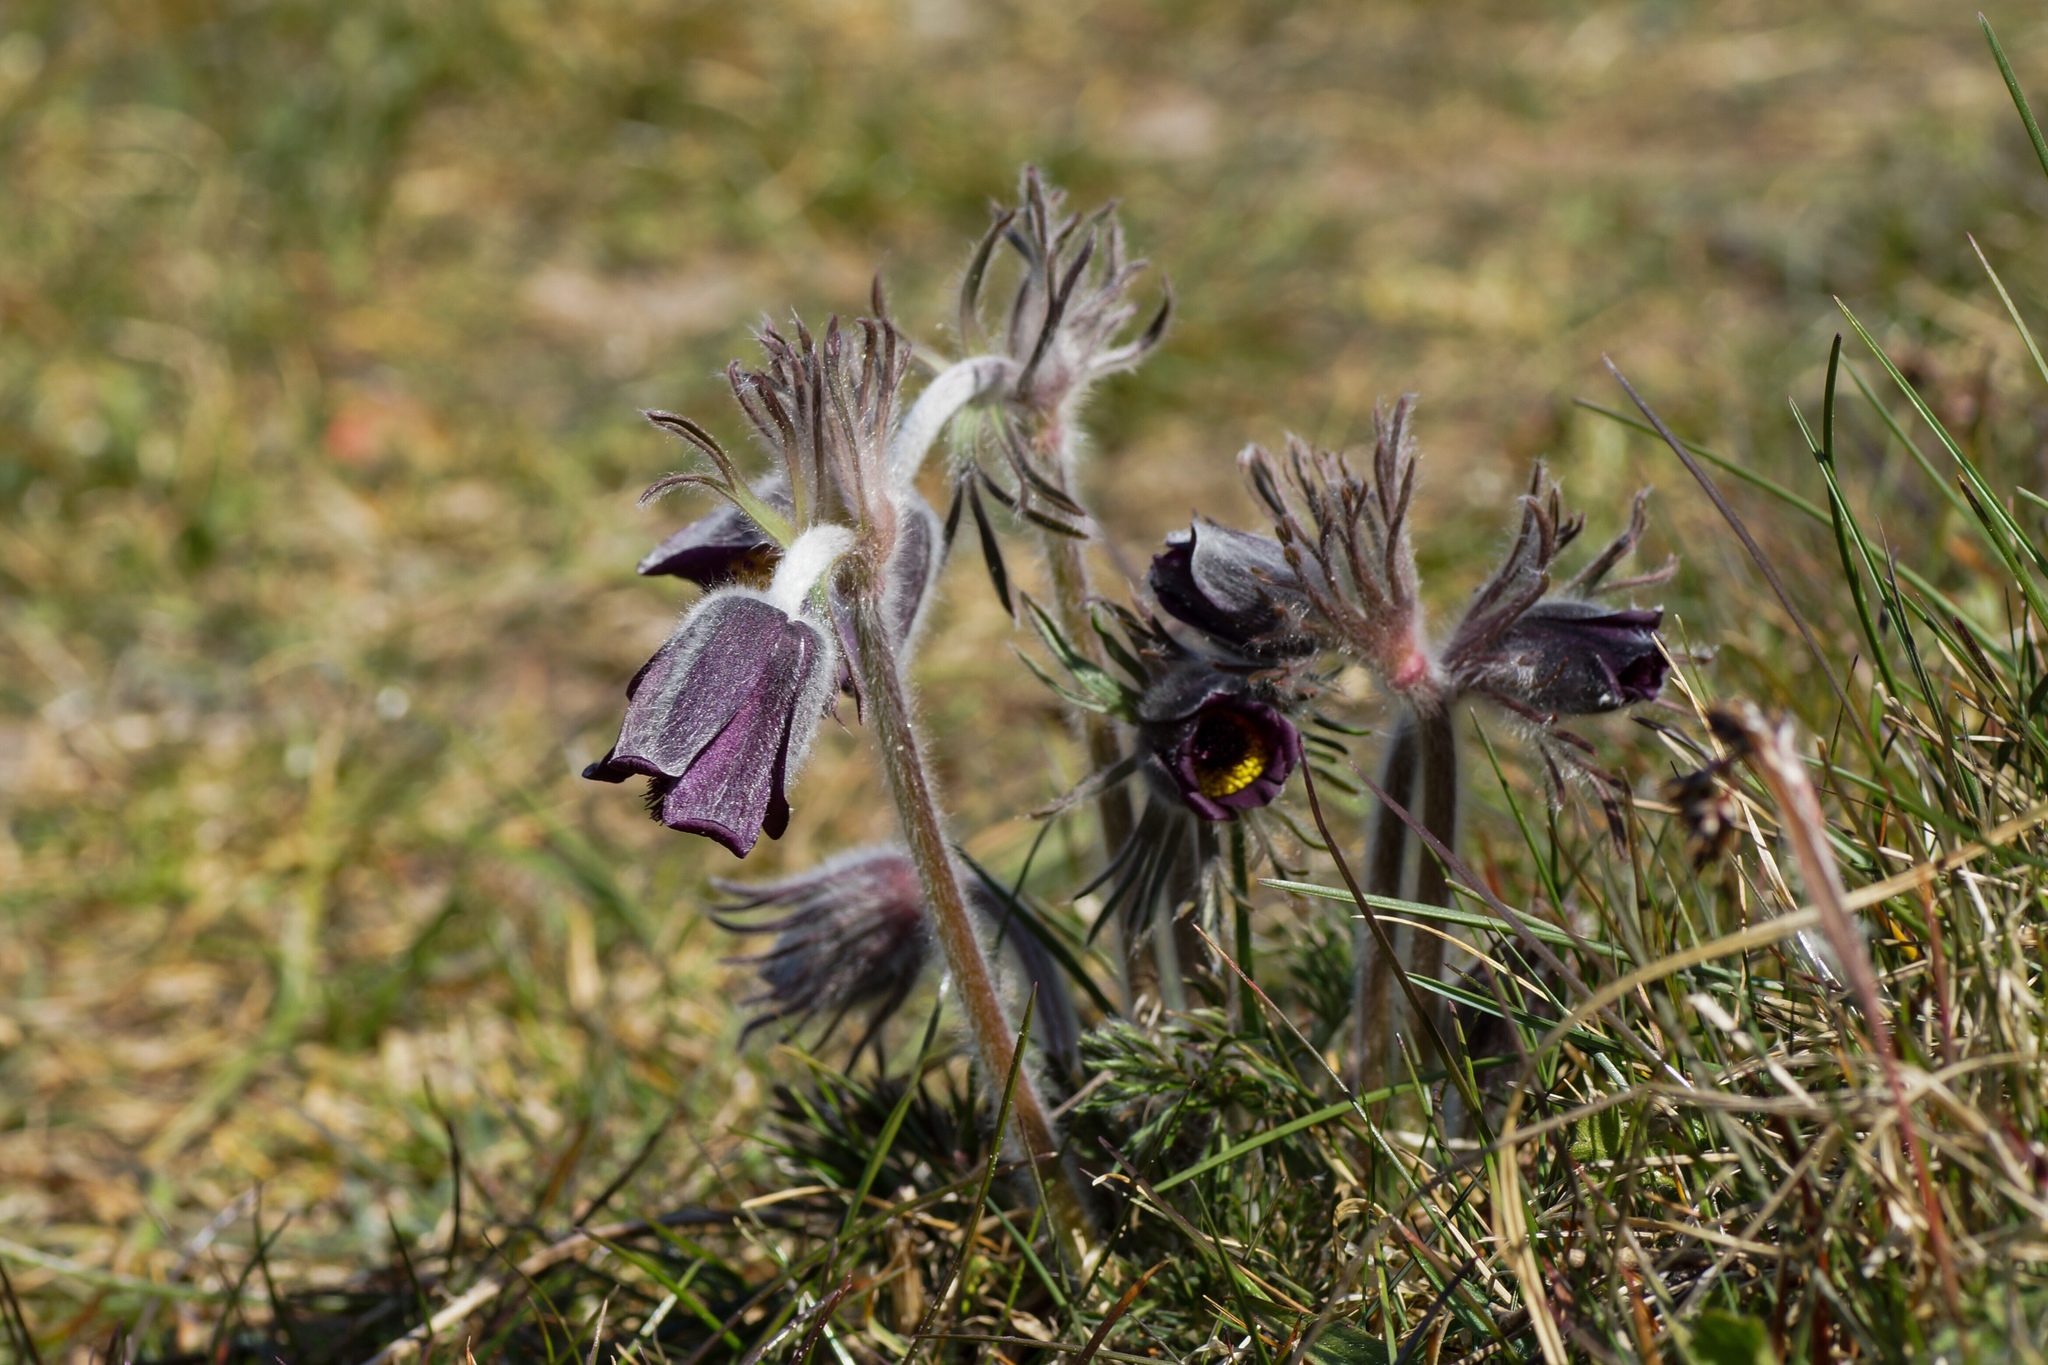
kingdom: Plantae
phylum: Tracheophyta
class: Magnoliopsida
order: Ranunculales
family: Ranunculaceae
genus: Pulsatilla
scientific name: Pulsatilla pratensis
